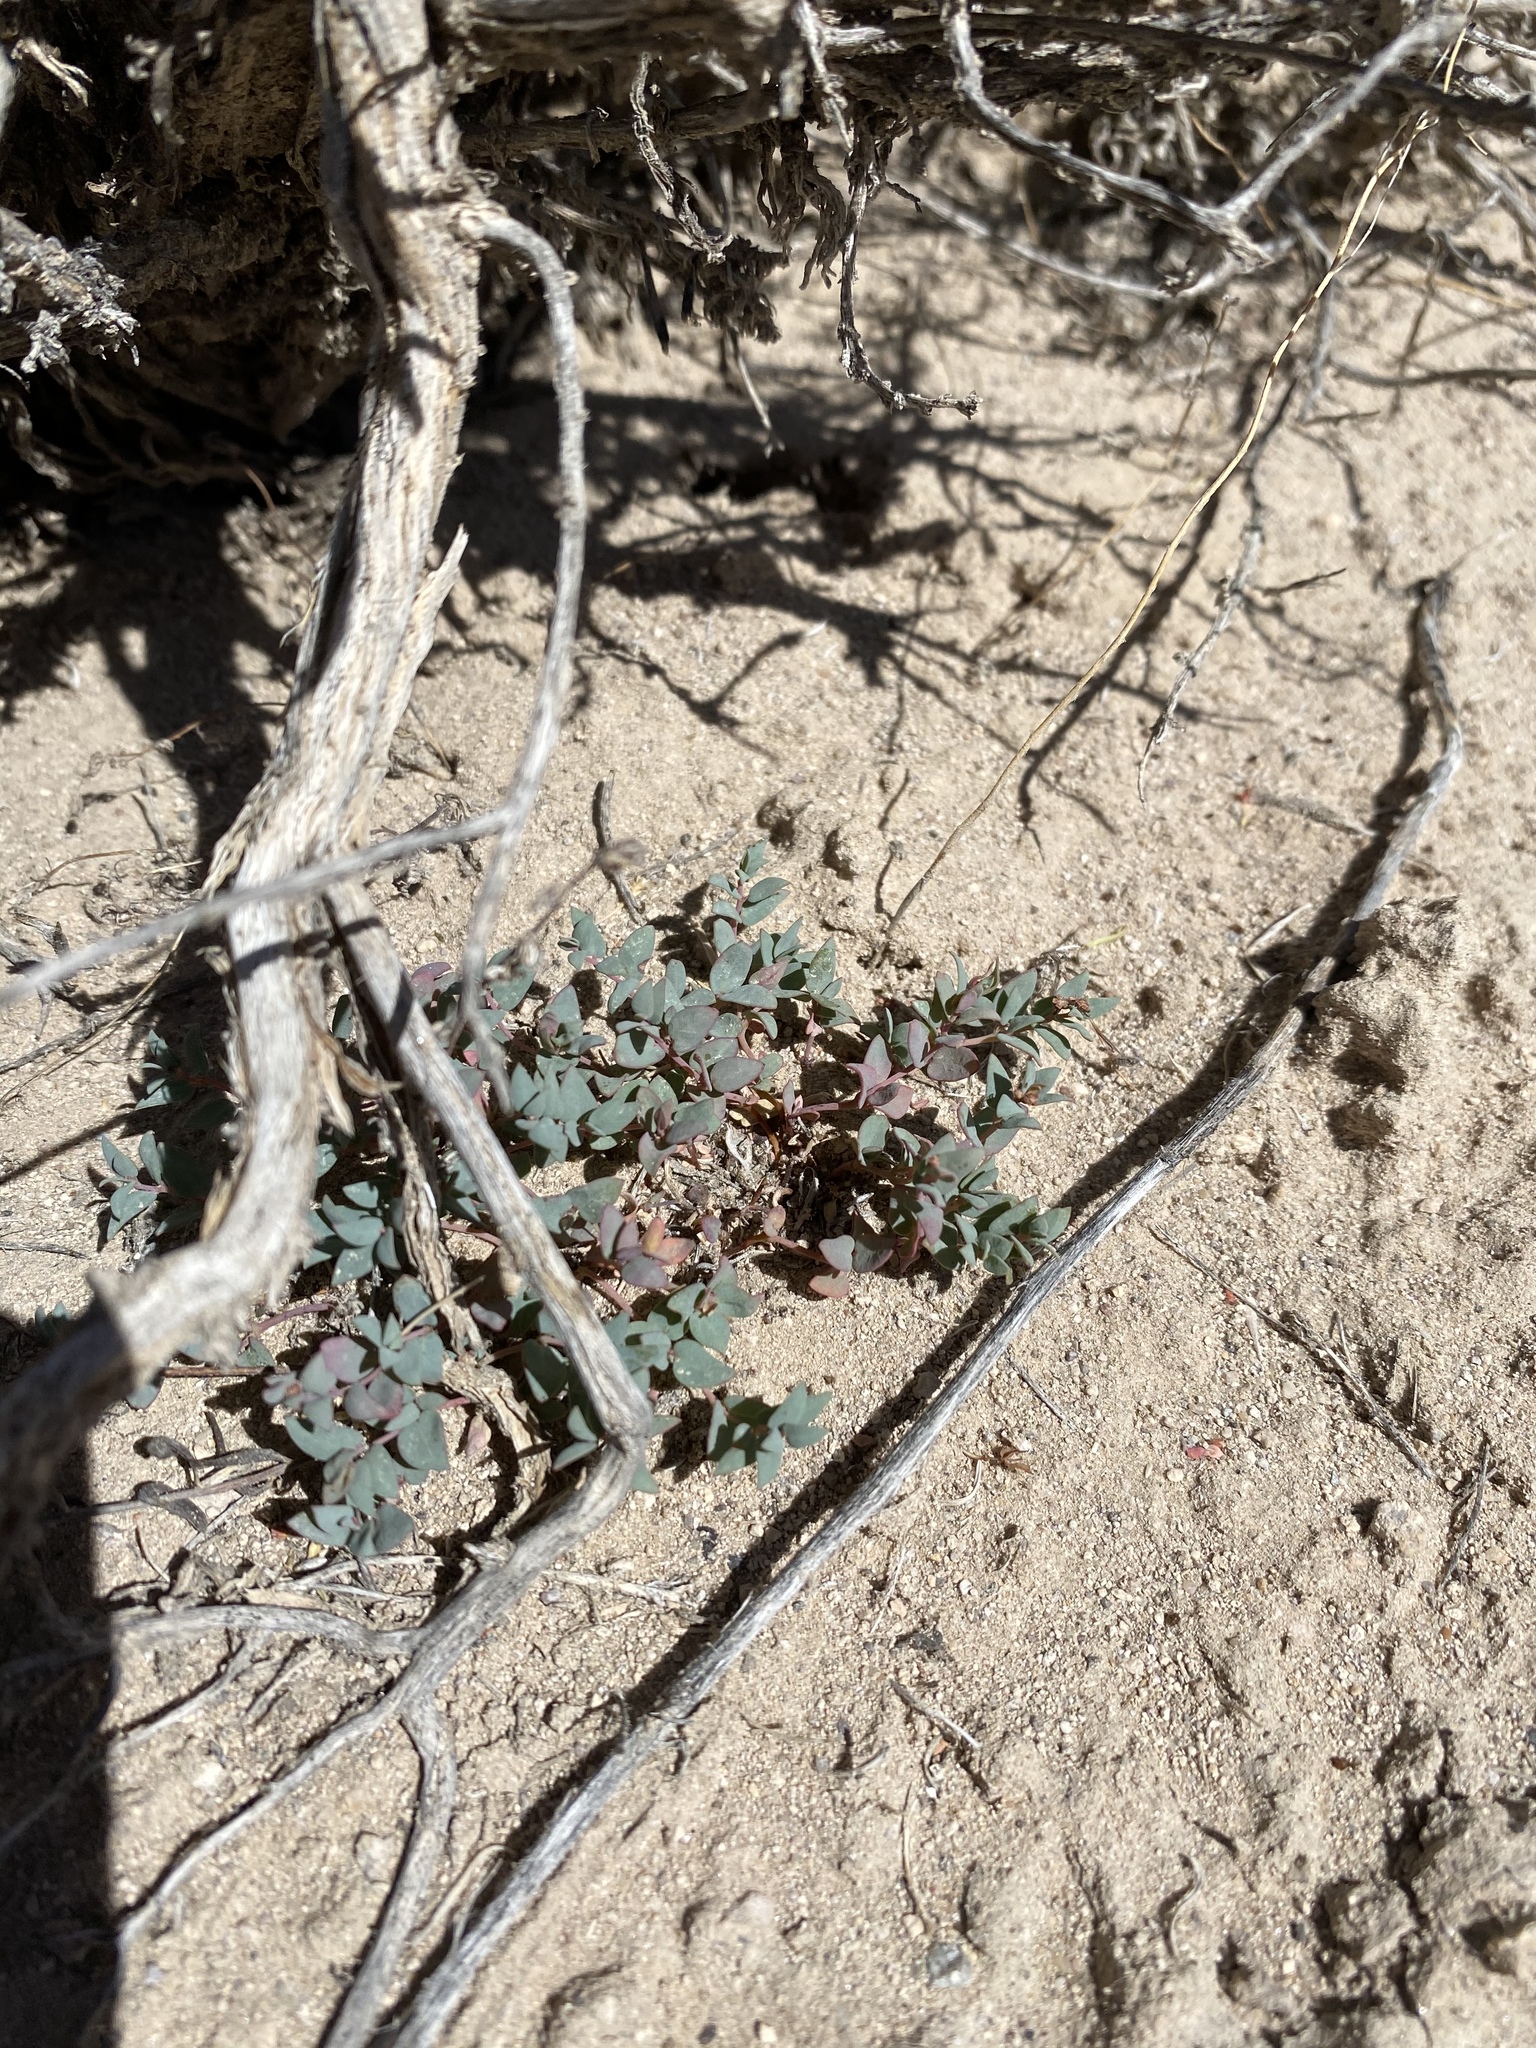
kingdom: Plantae
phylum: Tracheophyta
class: Magnoliopsida
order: Malpighiales
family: Euphorbiaceae
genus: Euphorbia
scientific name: Euphorbia fendleri
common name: Fendler's euphorbia
